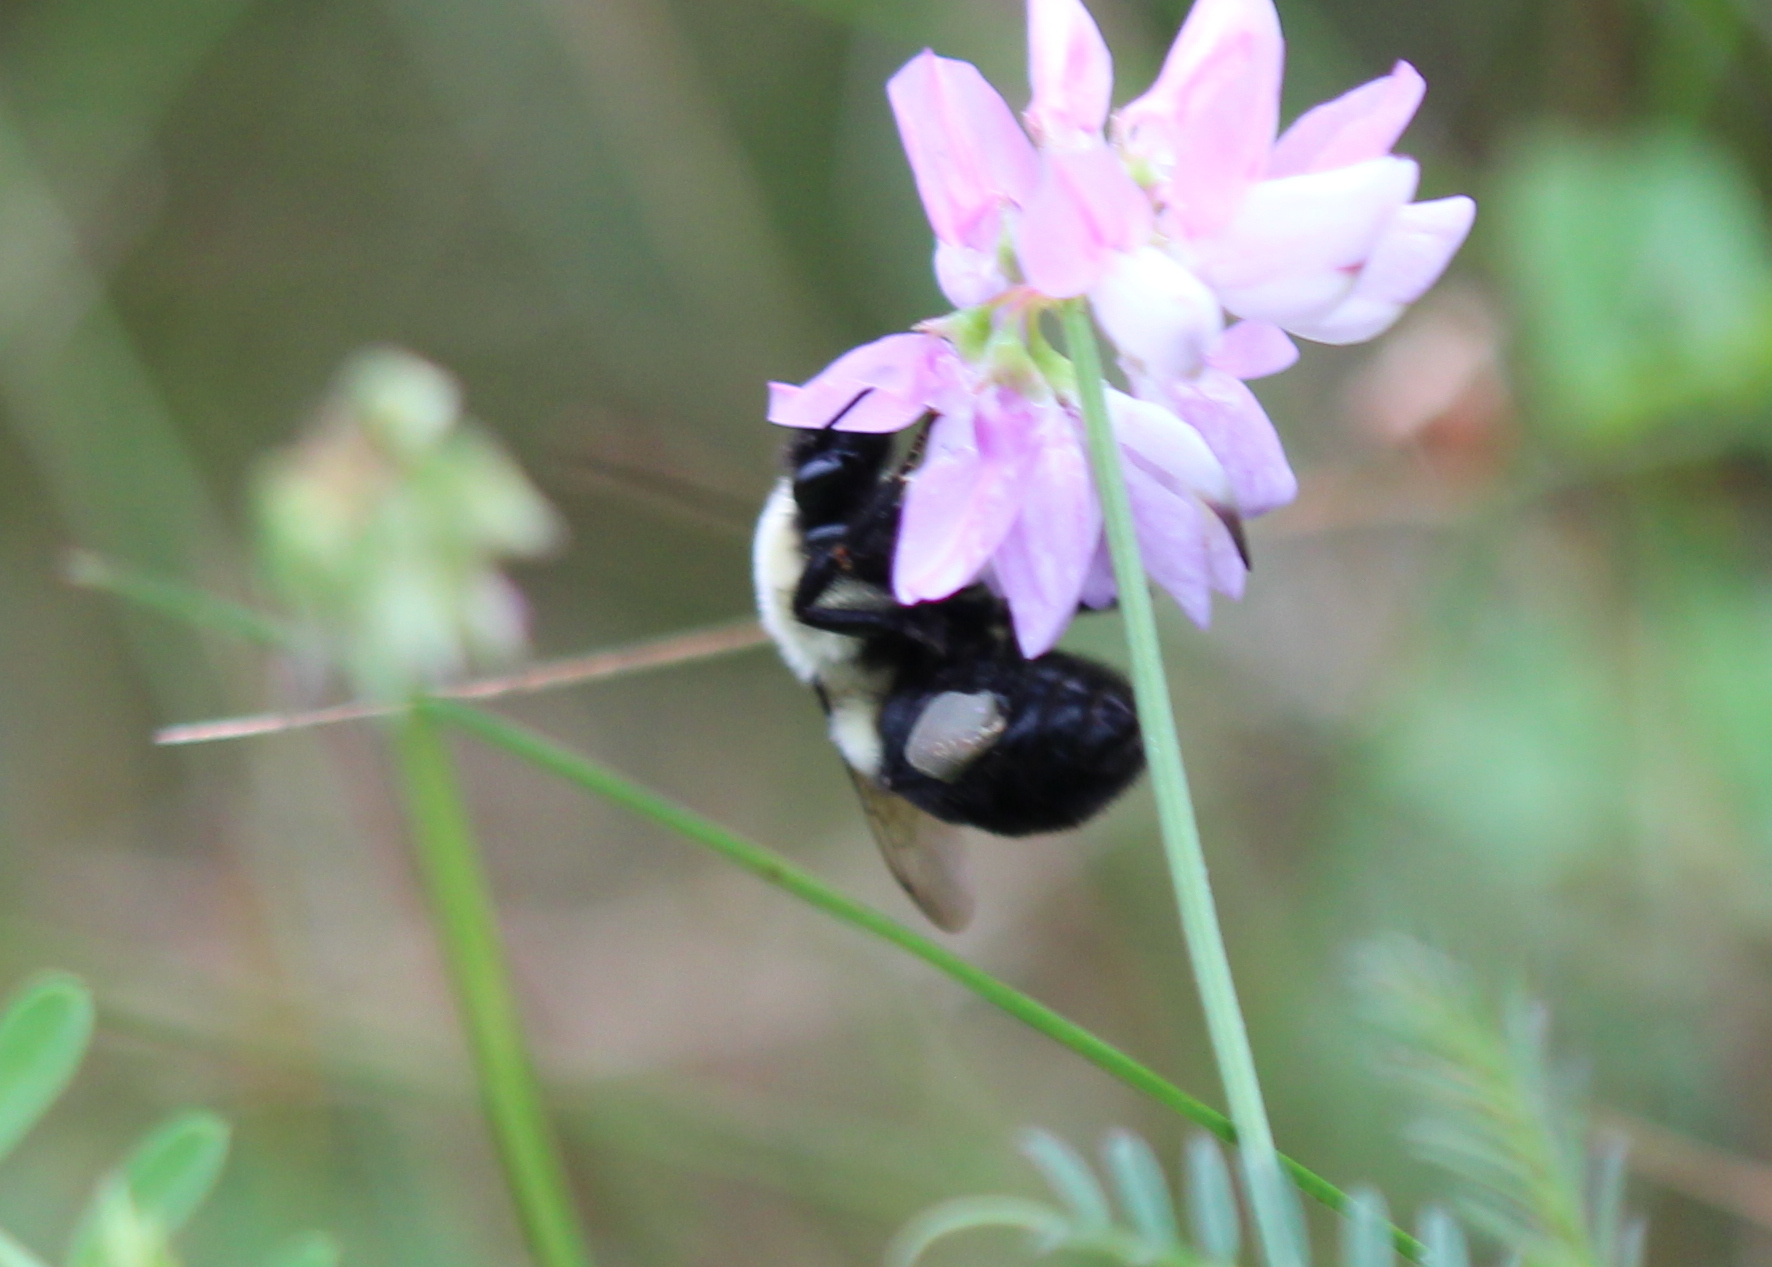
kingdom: Animalia
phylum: Arthropoda
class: Insecta
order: Hymenoptera
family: Apidae
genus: Bombus
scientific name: Bombus impatiens
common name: Common eastern bumble bee
